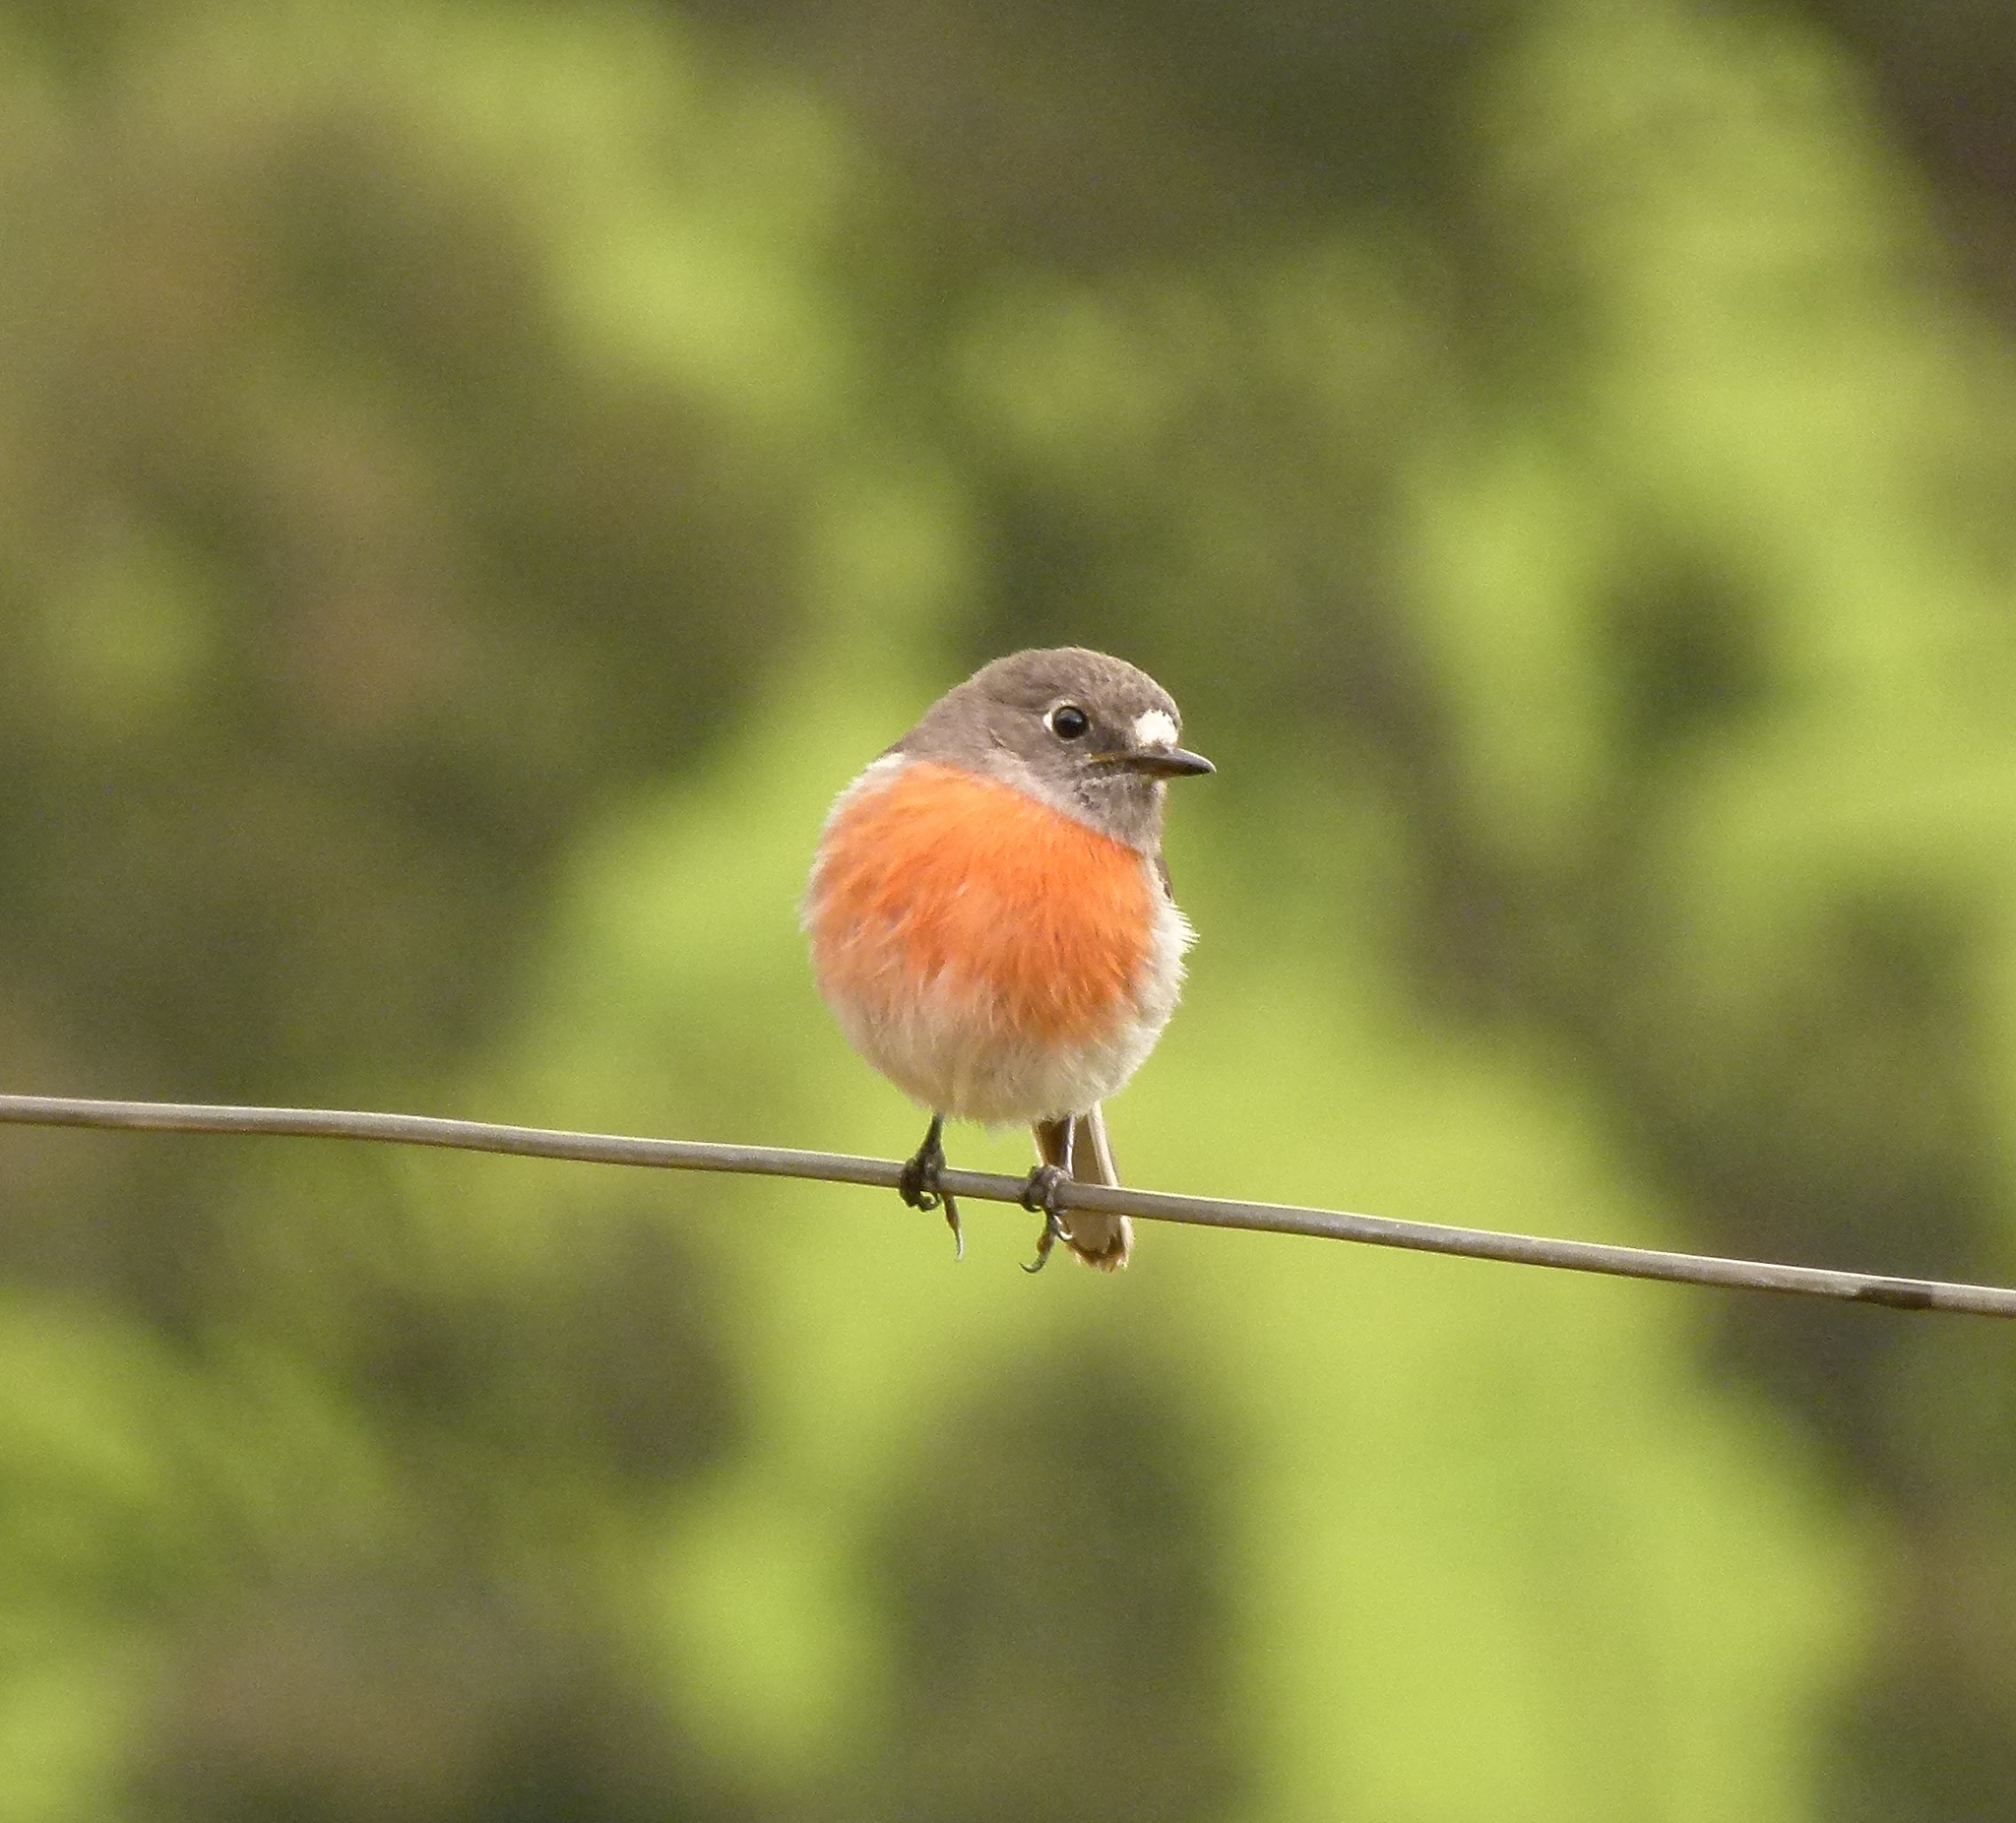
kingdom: Animalia
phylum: Chordata
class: Aves
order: Passeriformes
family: Petroicidae
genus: Petroica
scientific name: Petroica boodang
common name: Scarlet robin
